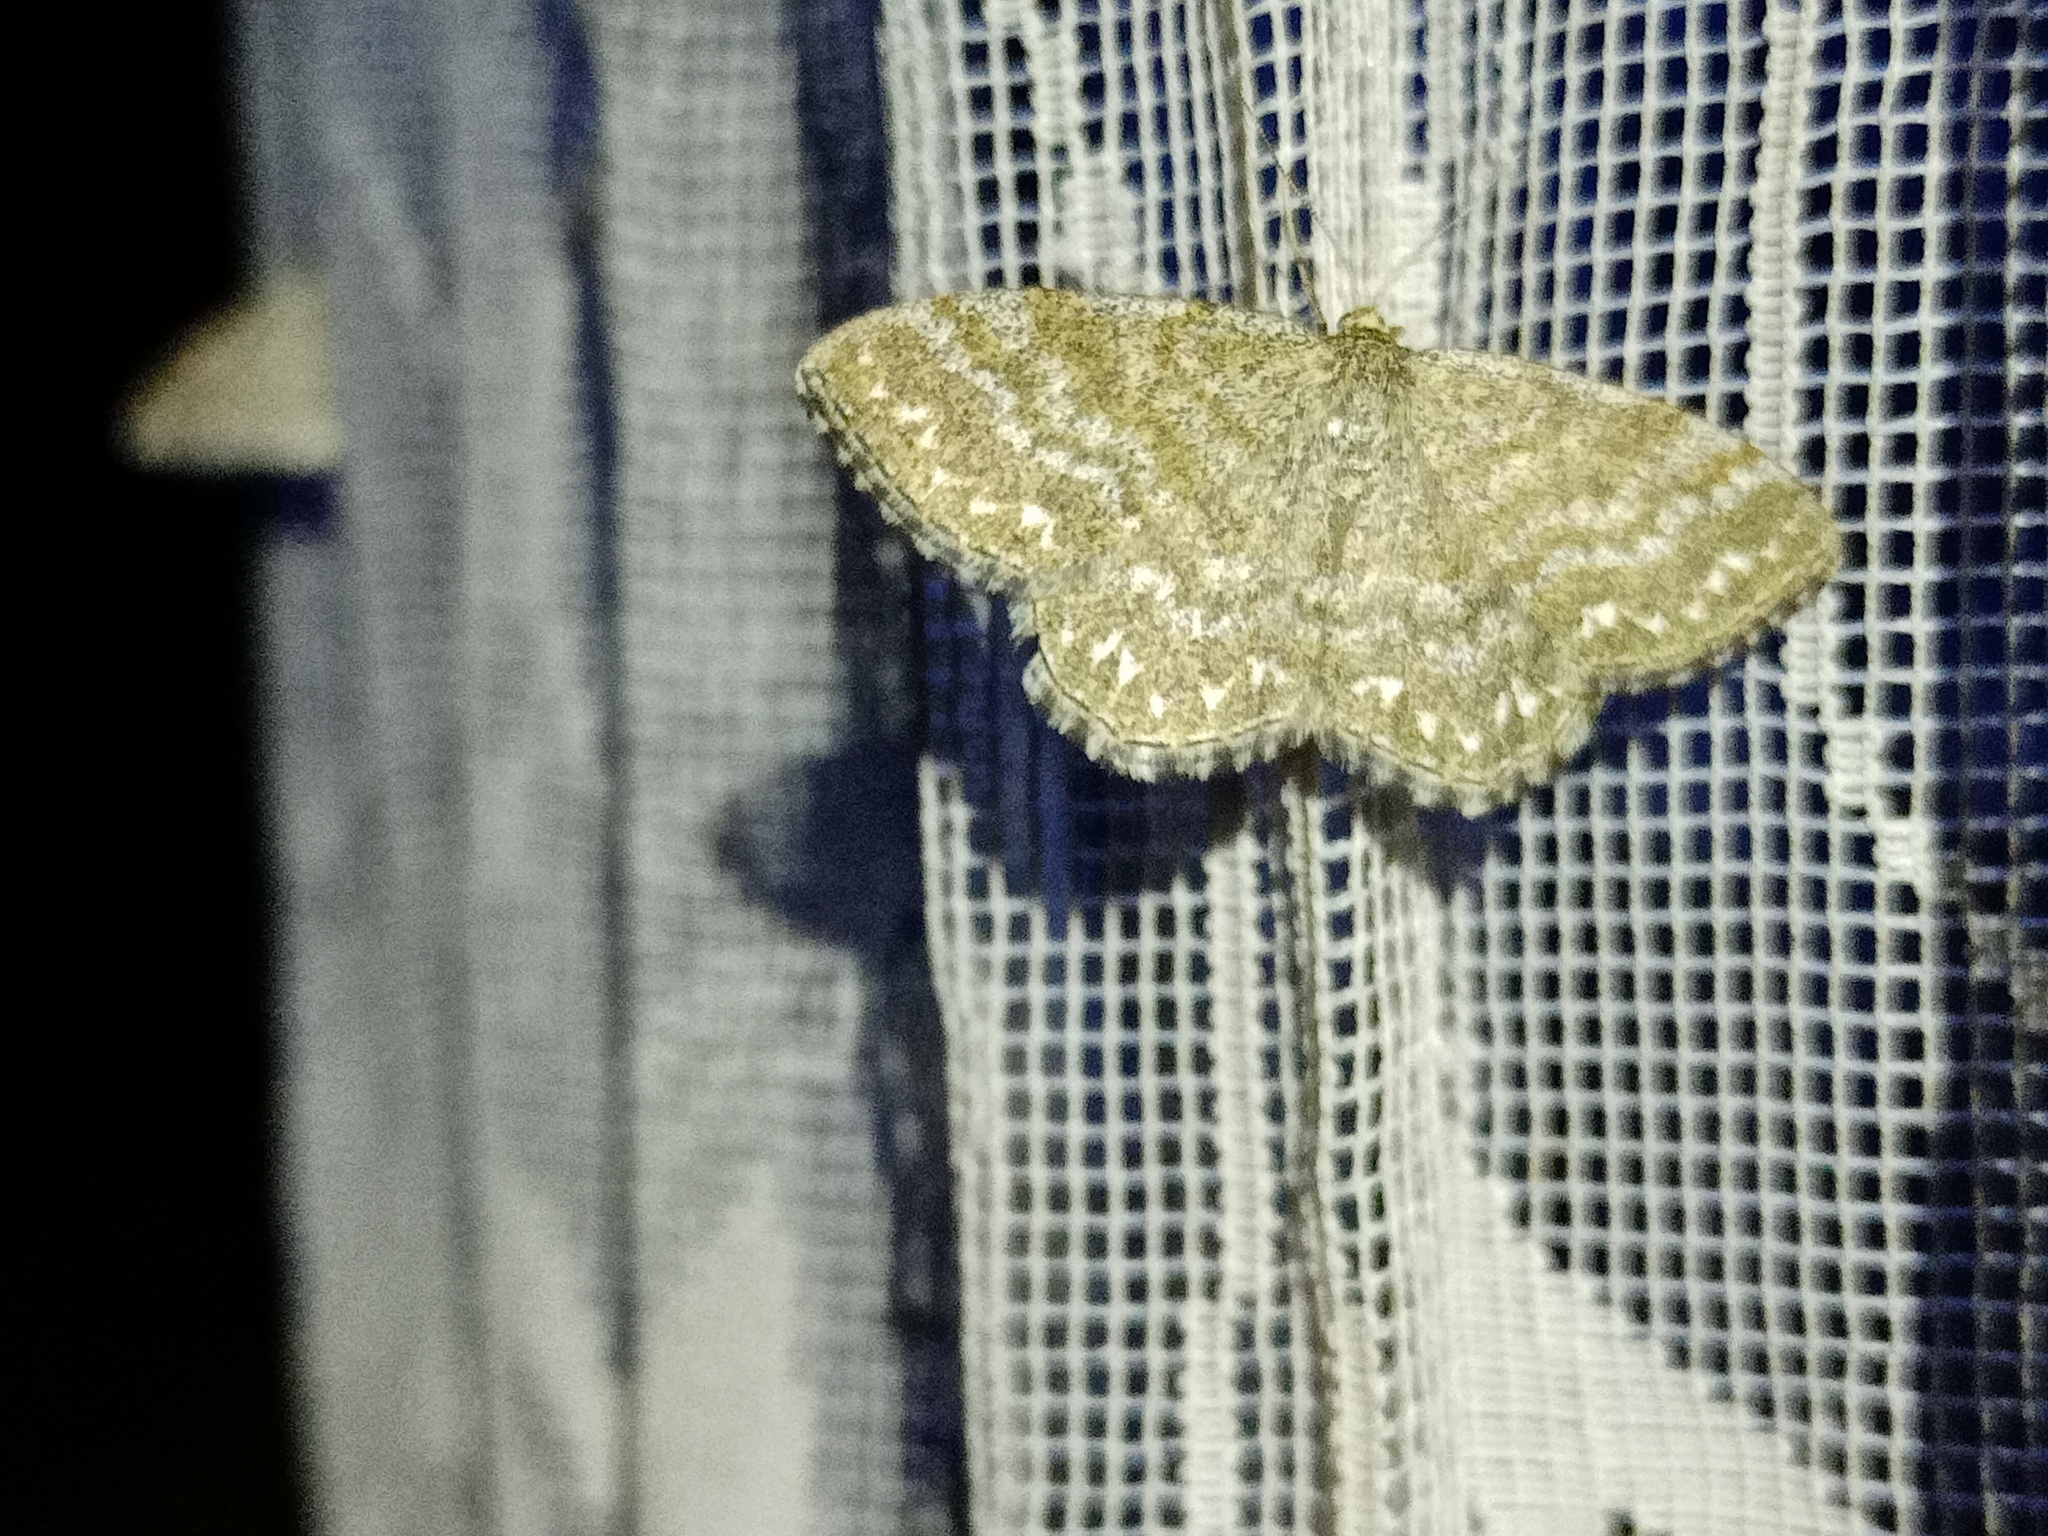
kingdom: Animalia
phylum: Arthropoda
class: Insecta
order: Lepidoptera
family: Geometridae
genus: Scopula
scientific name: Scopula immorata
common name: Lewes wave
